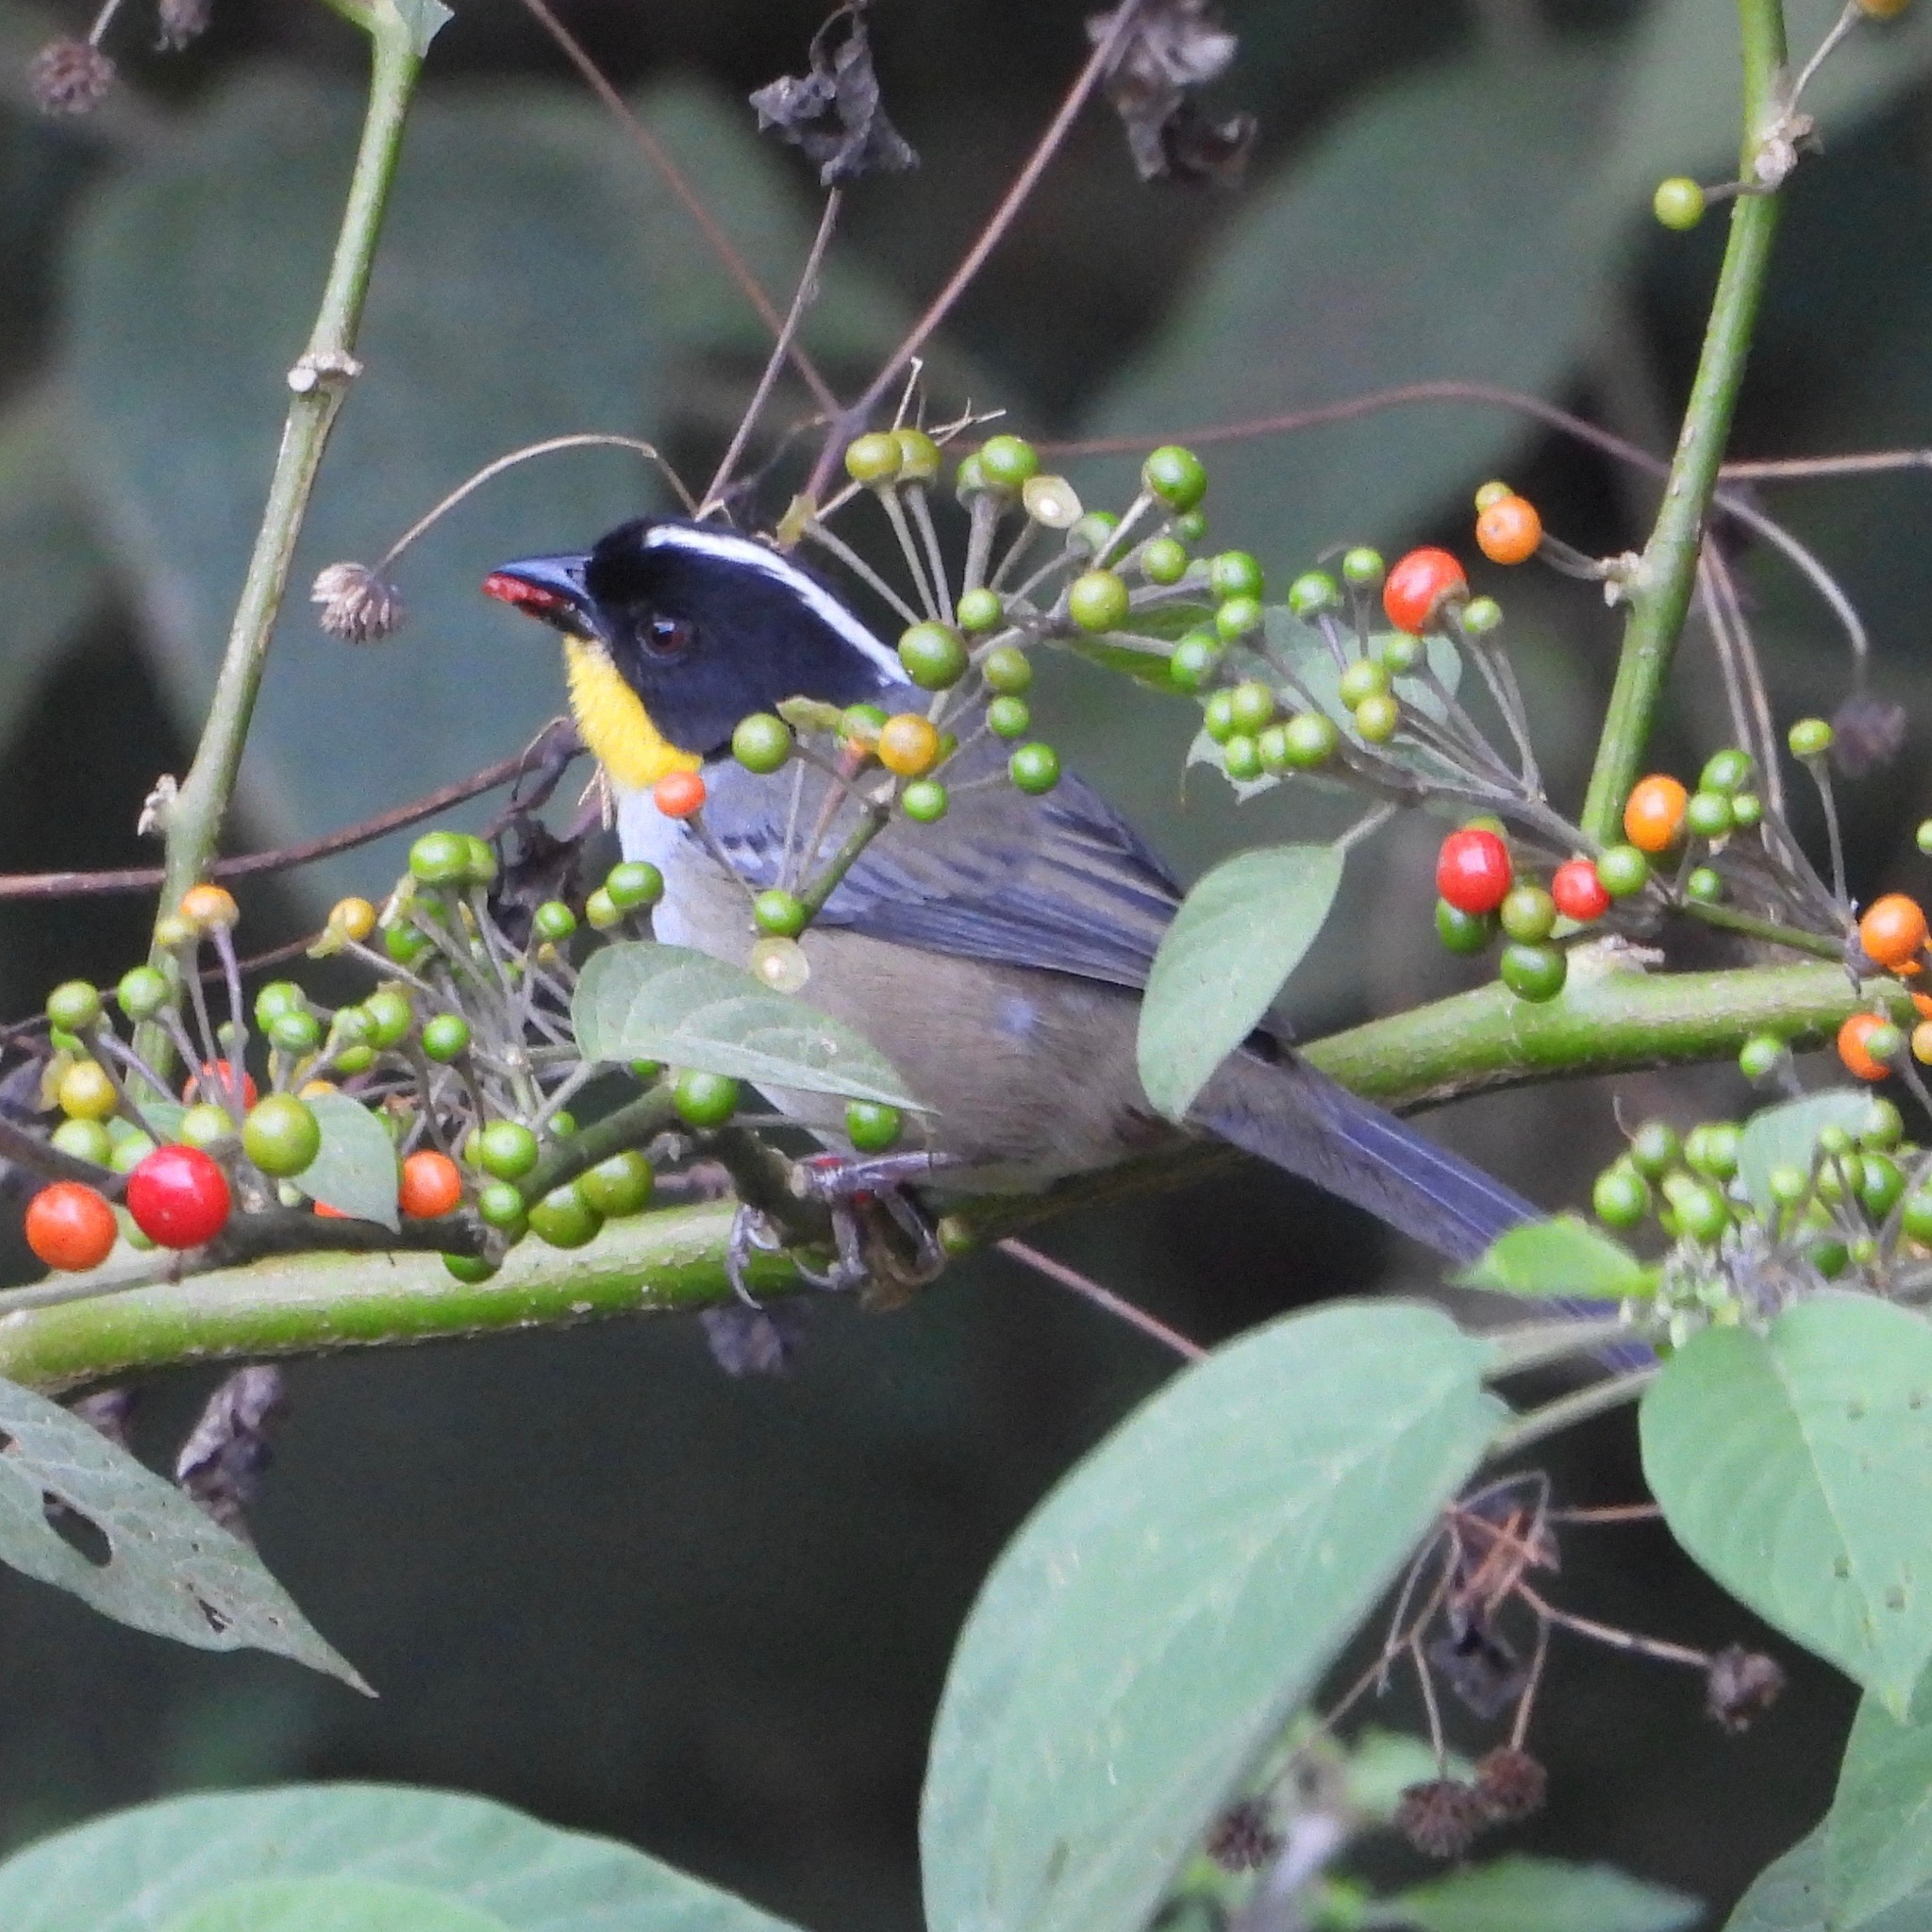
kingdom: Animalia
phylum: Chordata
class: Aves
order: Passeriformes
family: Passerellidae
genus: Atlapetes
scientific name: Atlapetes albinucha
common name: White-naped brush-finch
